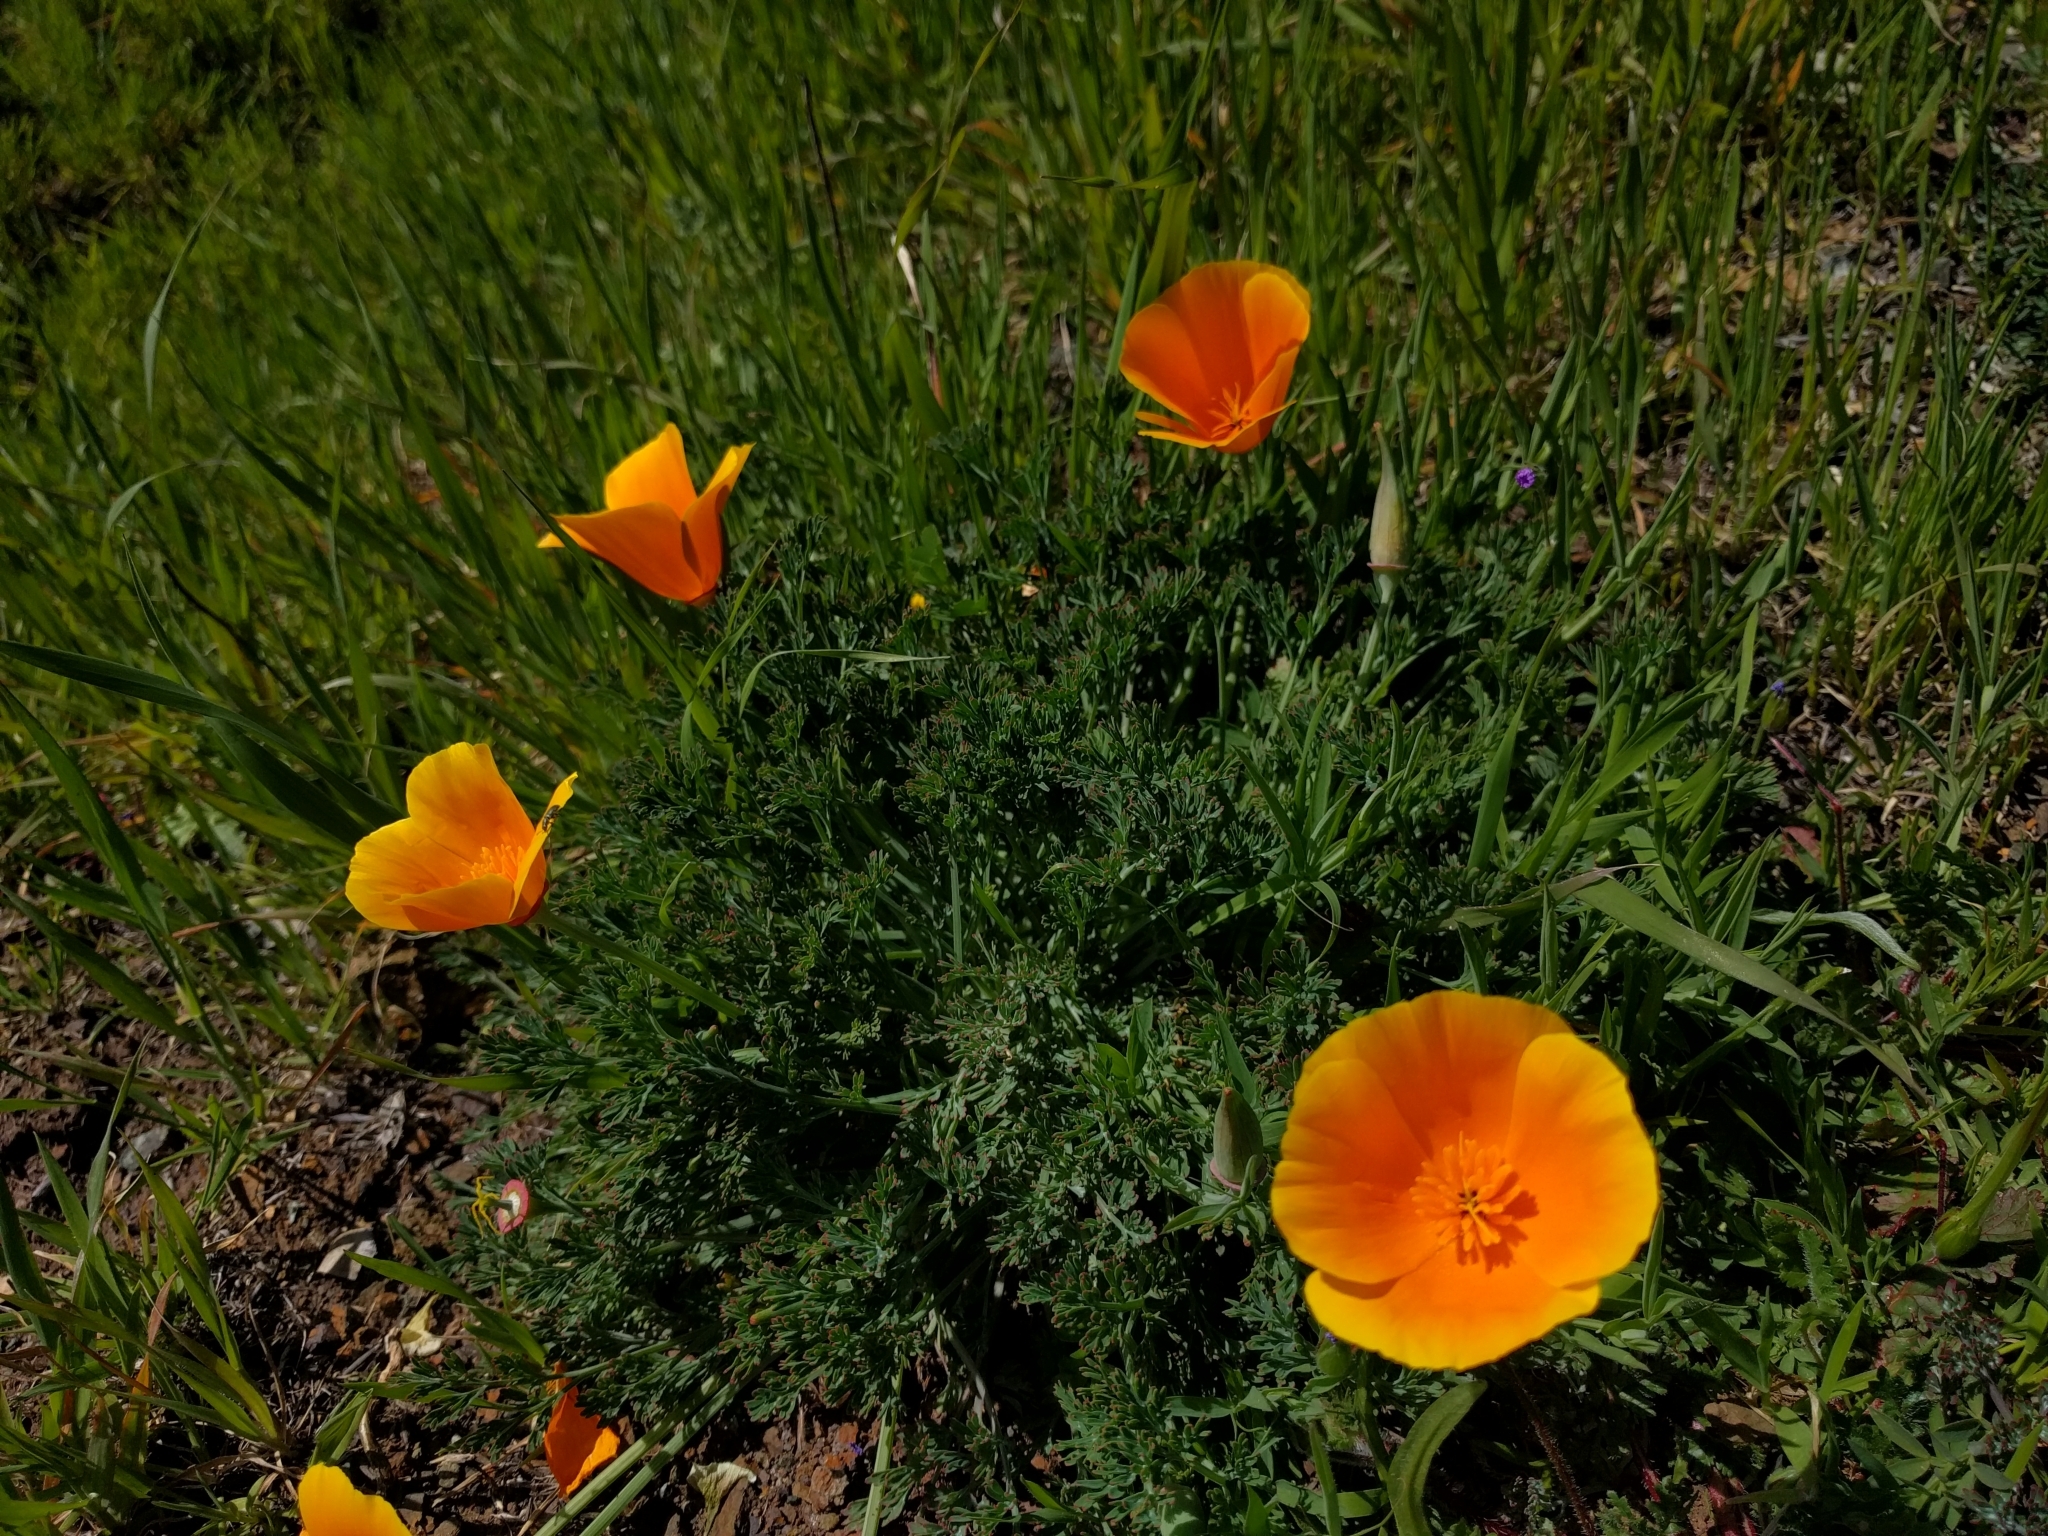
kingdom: Plantae
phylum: Tracheophyta
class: Magnoliopsida
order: Ranunculales
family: Papaveraceae
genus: Eschscholzia
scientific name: Eschscholzia californica
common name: California poppy
